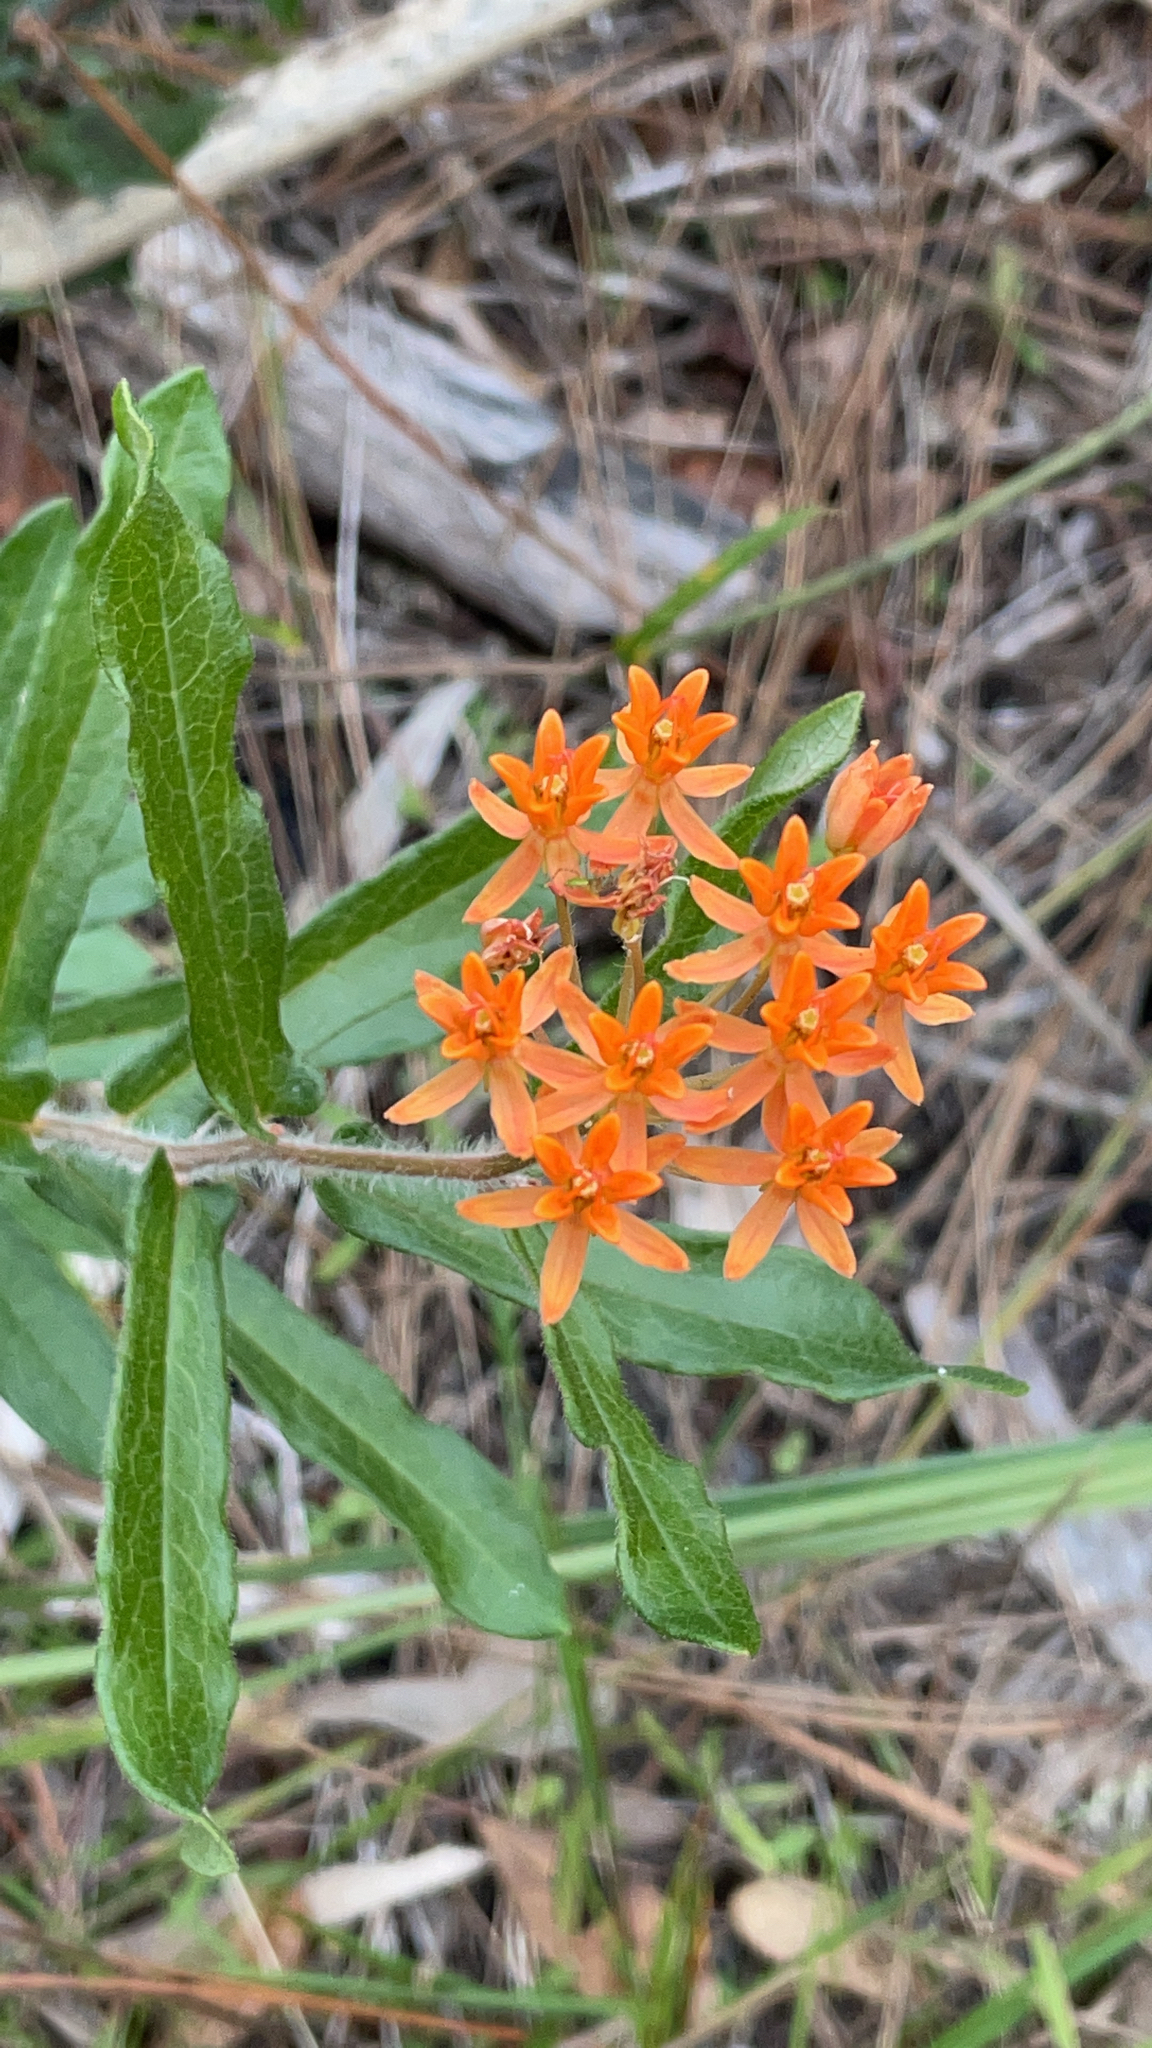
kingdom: Plantae
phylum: Tracheophyta
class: Magnoliopsida
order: Gentianales
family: Apocynaceae
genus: Asclepias
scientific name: Asclepias tuberosa
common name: Butterfly milkweed
